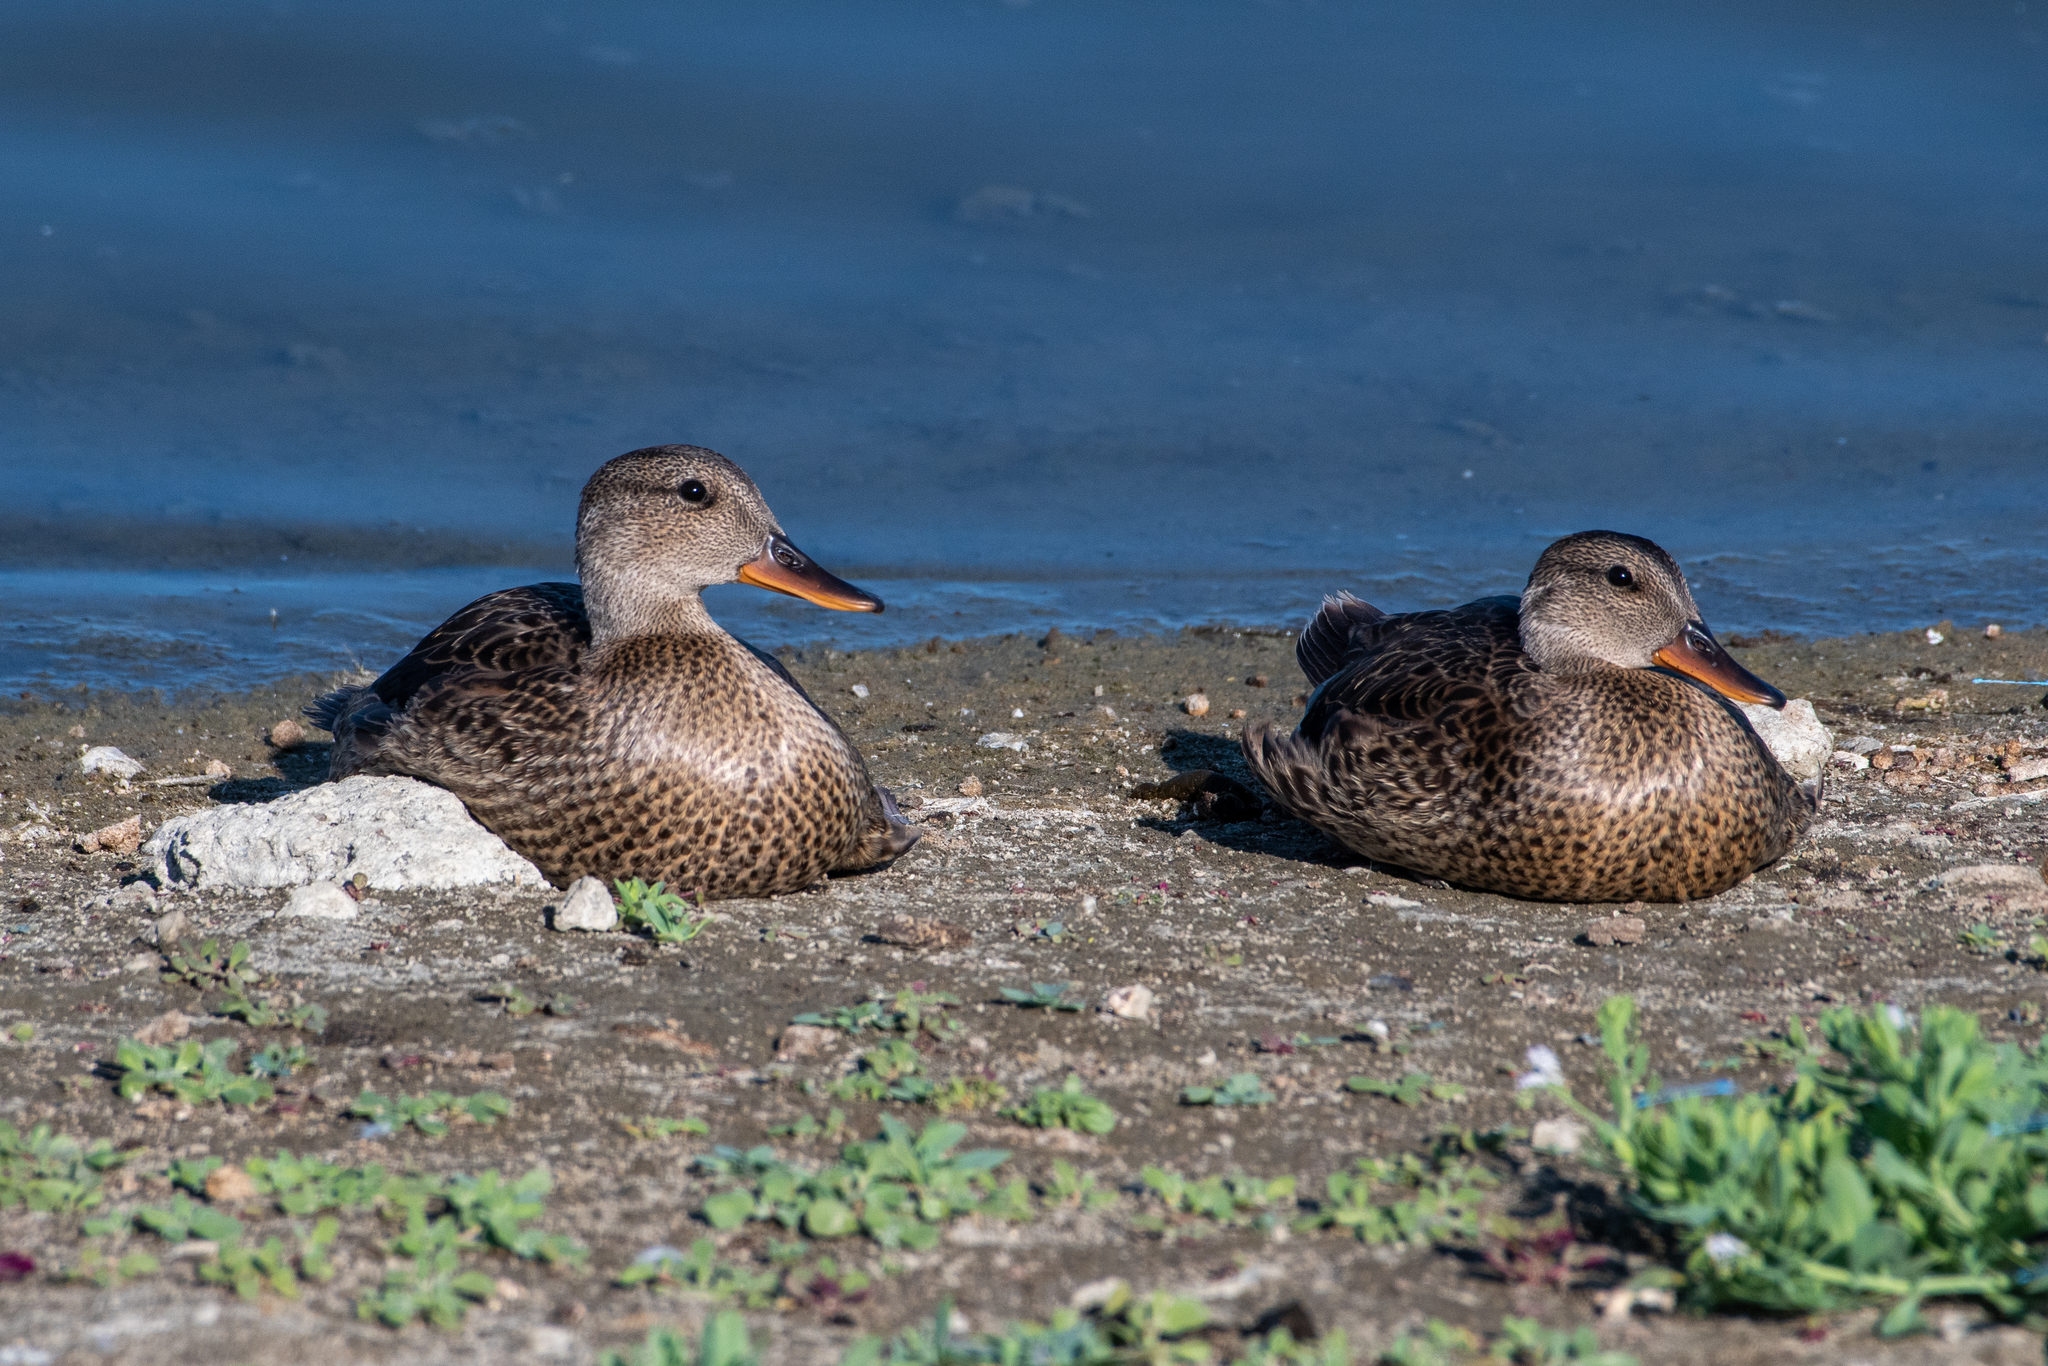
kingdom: Animalia
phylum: Chordata
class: Aves
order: Anseriformes
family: Anatidae
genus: Mareca
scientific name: Mareca strepera
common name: Gadwall
